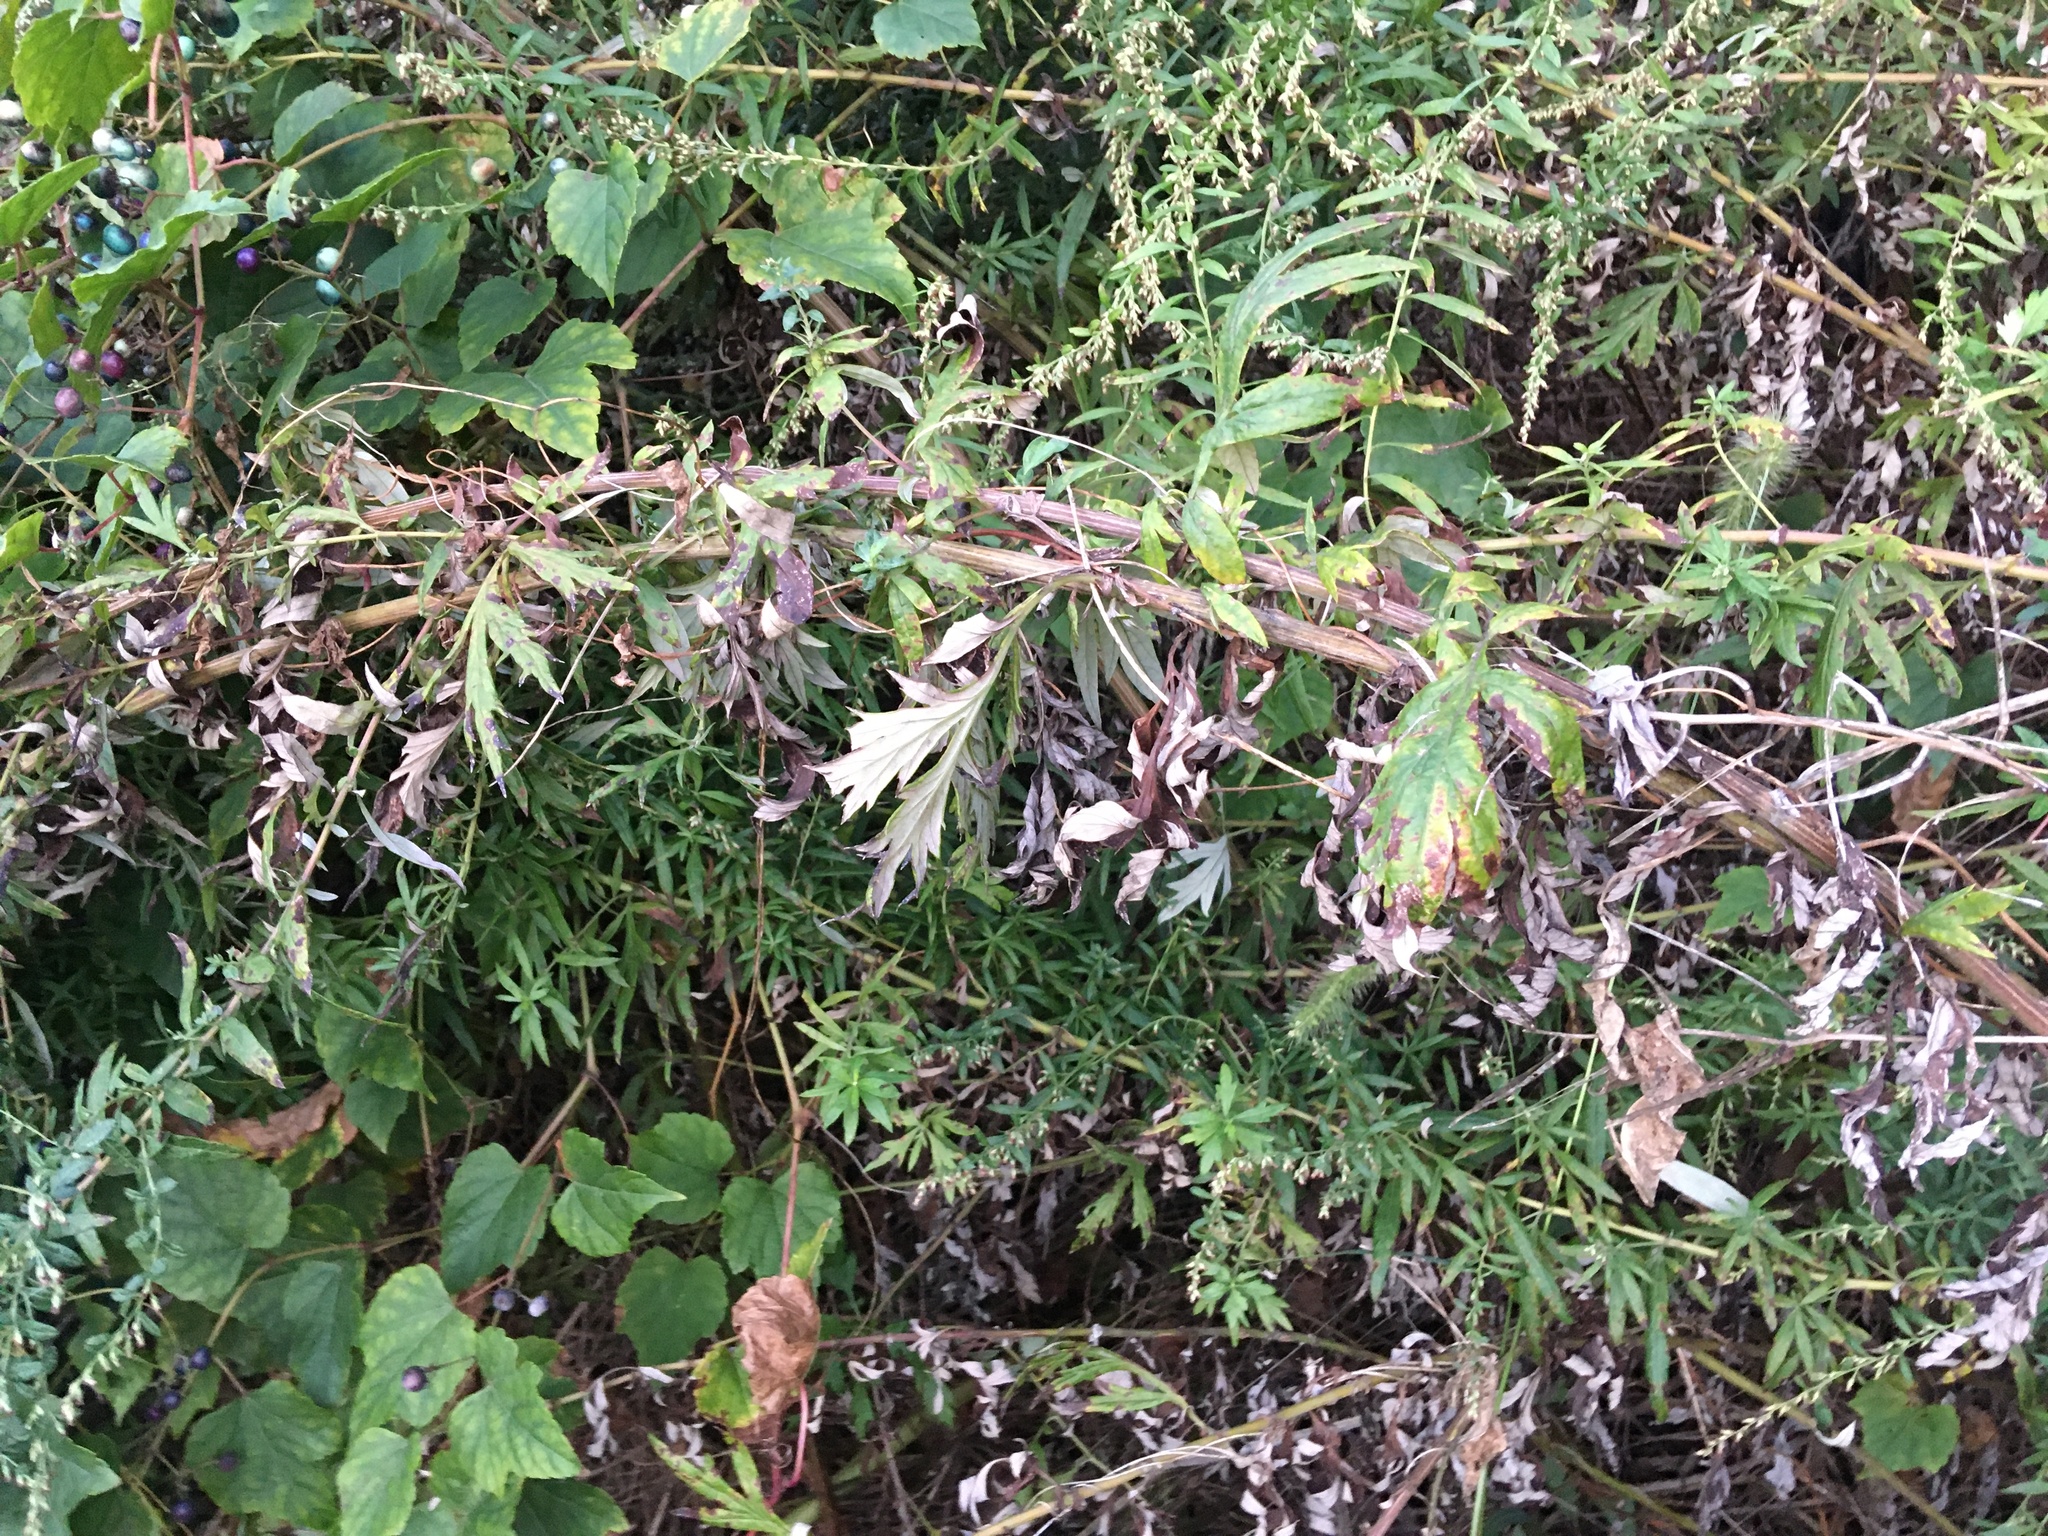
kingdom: Plantae
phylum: Tracheophyta
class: Magnoliopsida
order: Asterales
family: Asteraceae
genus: Artemisia
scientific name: Artemisia vulgaris
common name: Mugwort
